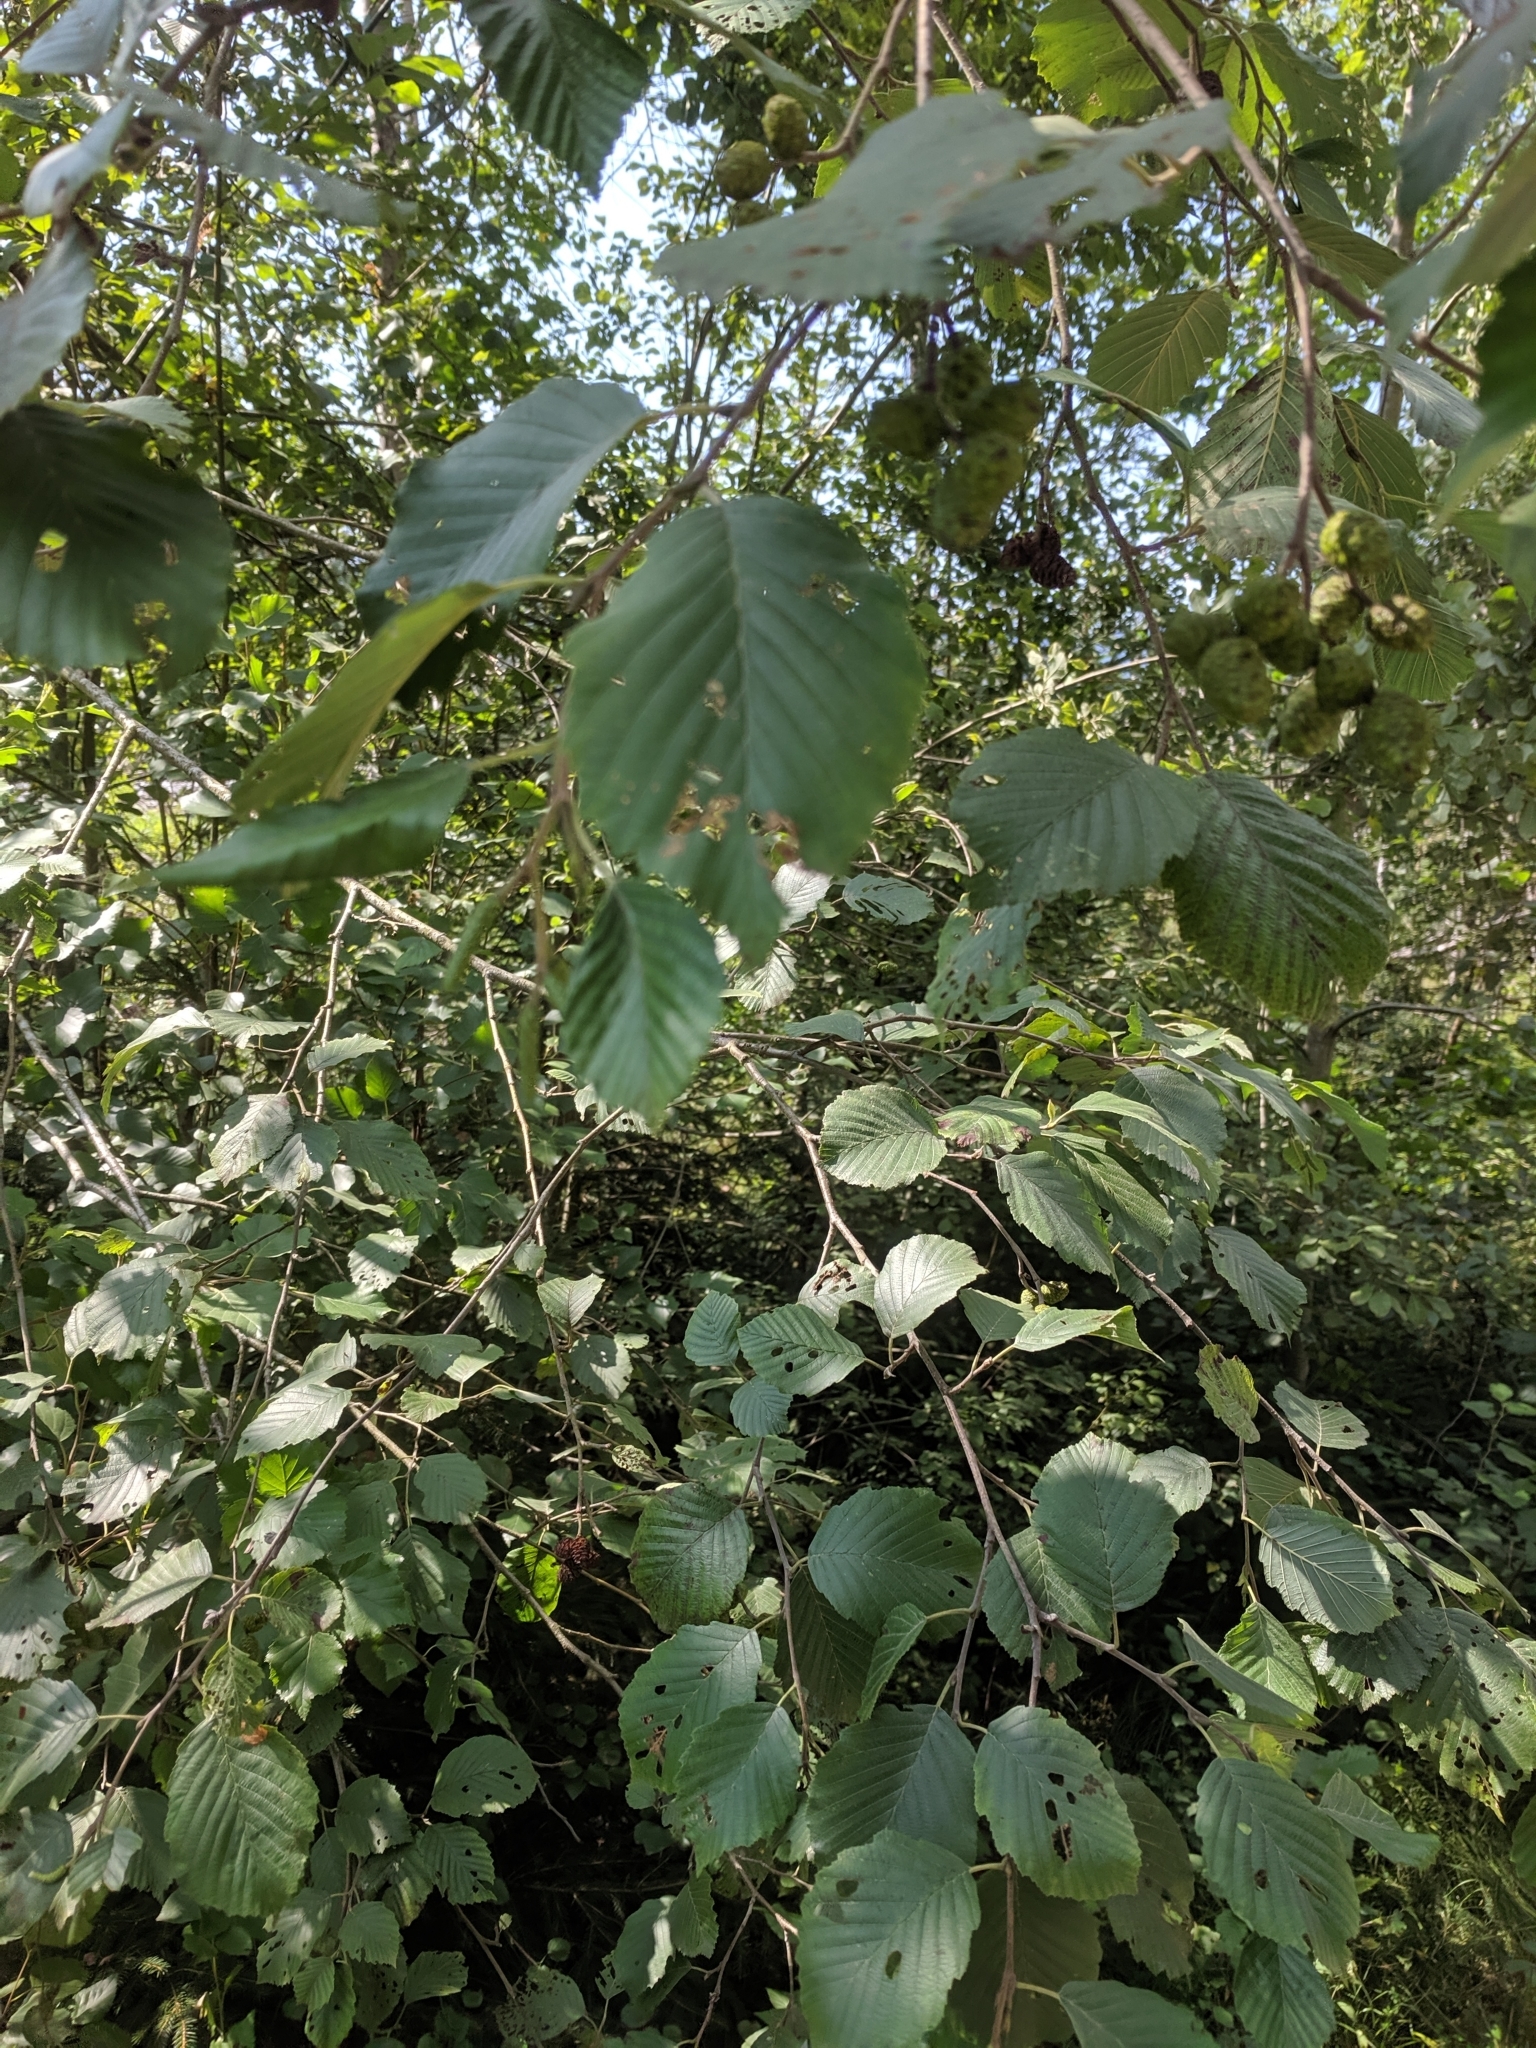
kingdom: Plantae
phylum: Tracheophyta
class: Magnoliopsida
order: Fagales
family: Betulaceae
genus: Alnus
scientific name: Alnus incana
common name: Grey alder
